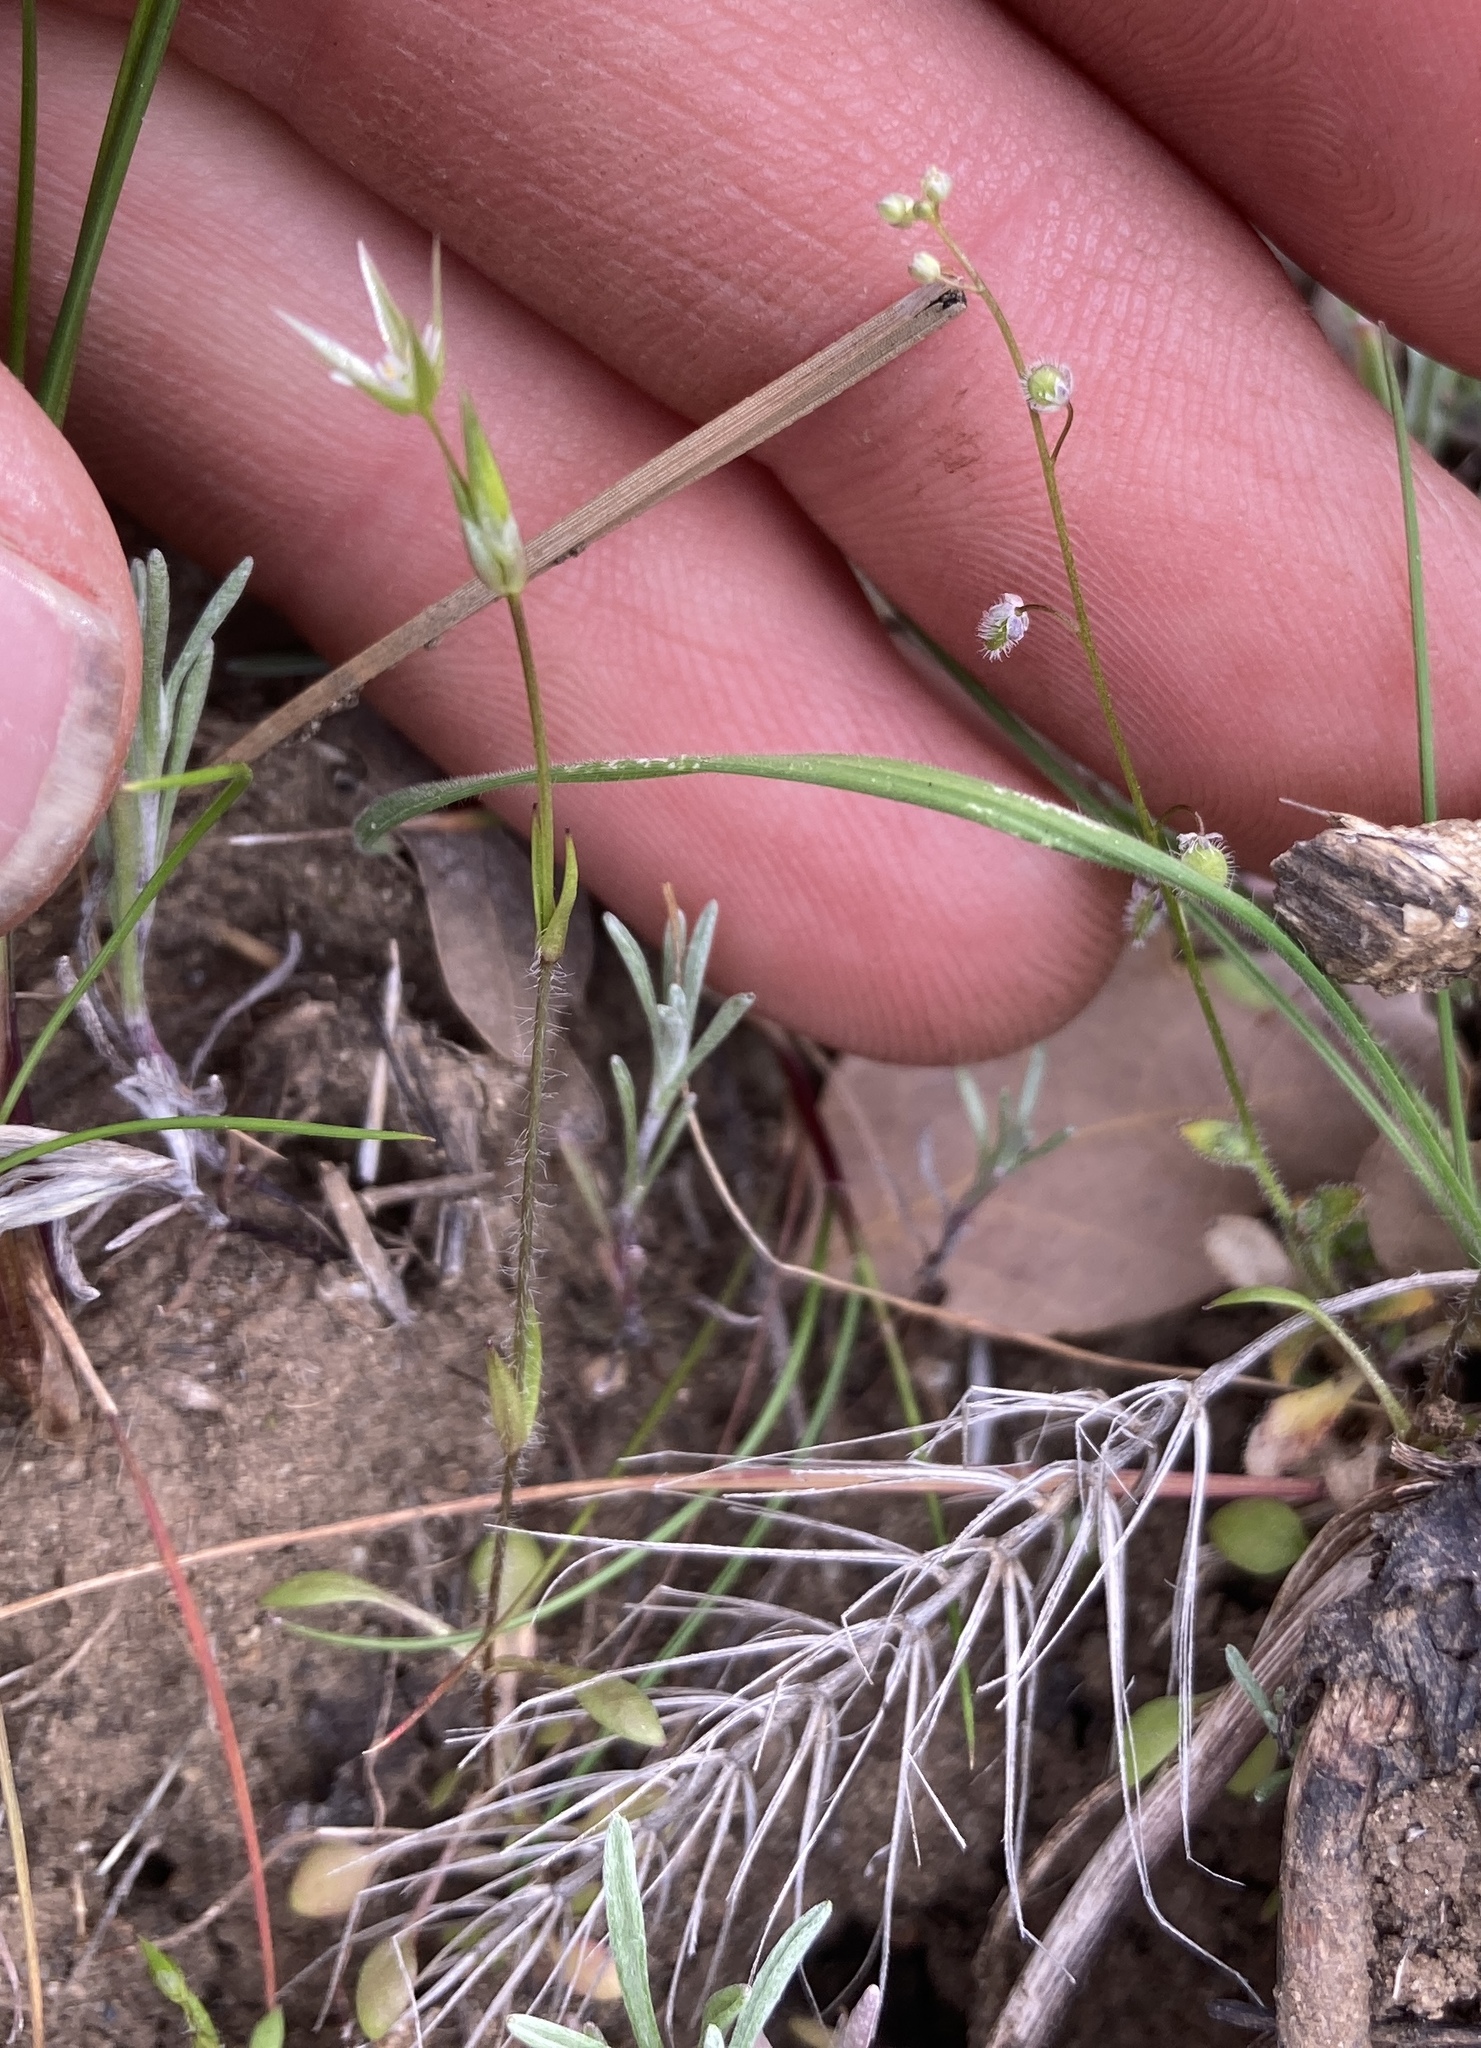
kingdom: Plantae
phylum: Tracheophyta
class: Magnoliopsida
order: Brassicales
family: Brassicaceae
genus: Athysanus
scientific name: Athysanus pusillus
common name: Common sandweed
